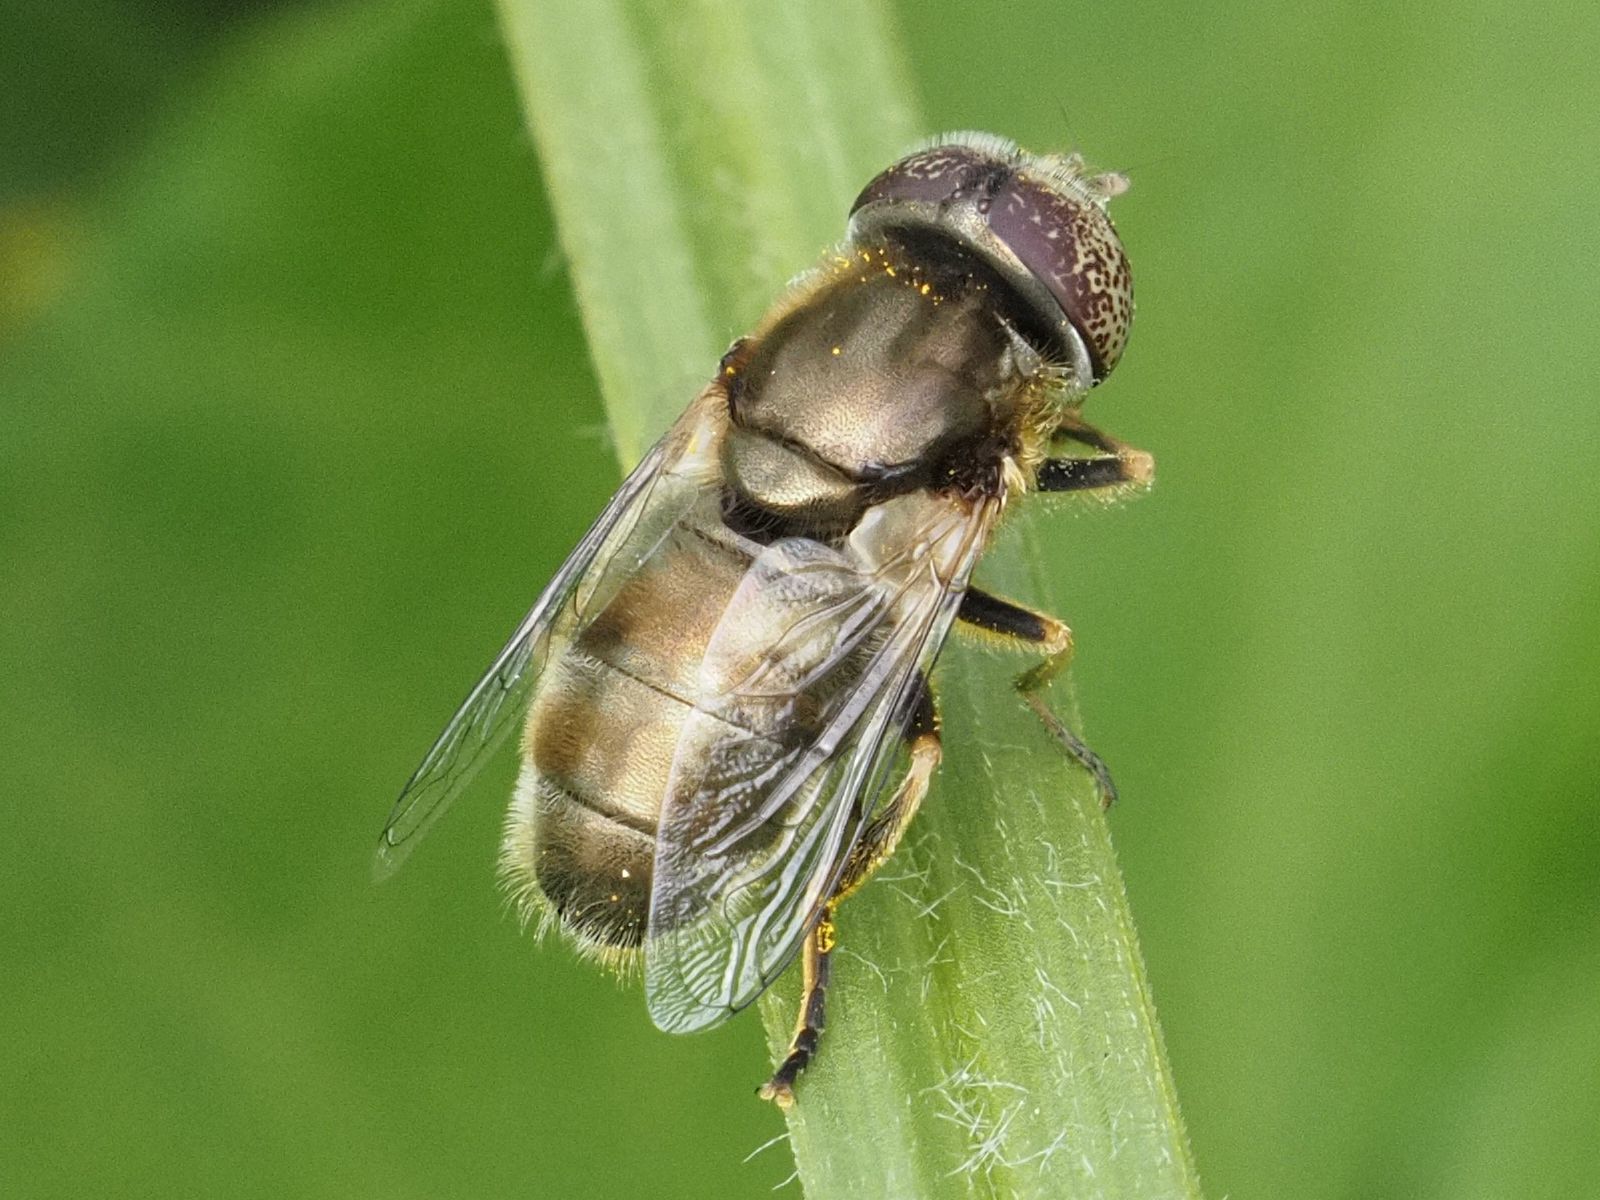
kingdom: Animalia
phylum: Arthropoda
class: Insecta
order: Diptera
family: Syrphidae
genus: Eristalinus
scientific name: Eristalinus aeneus
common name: Syrphid fly
